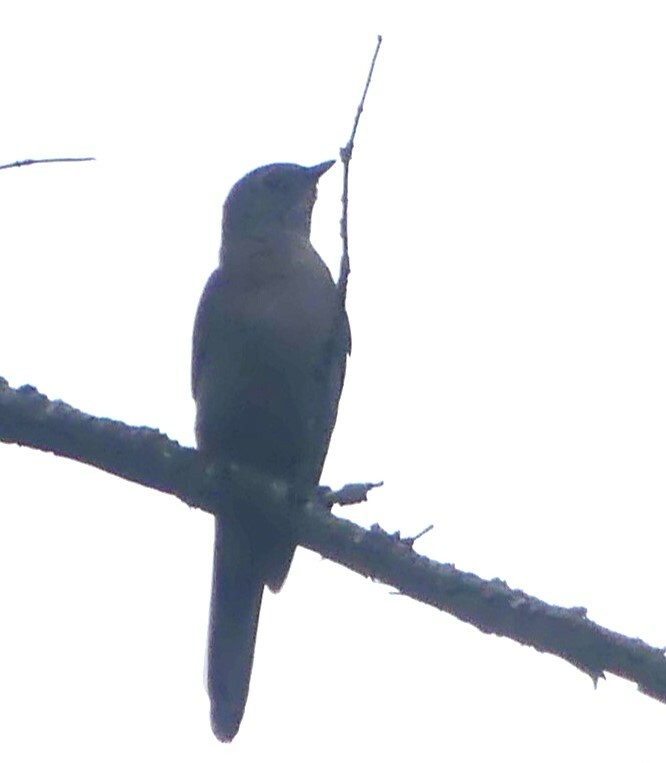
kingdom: Animalia
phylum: Chordata
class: Aves
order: Passeriformes
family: Turdidae
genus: Myadestes
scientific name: Myadestes townsendi
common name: Townsend's solitaire
